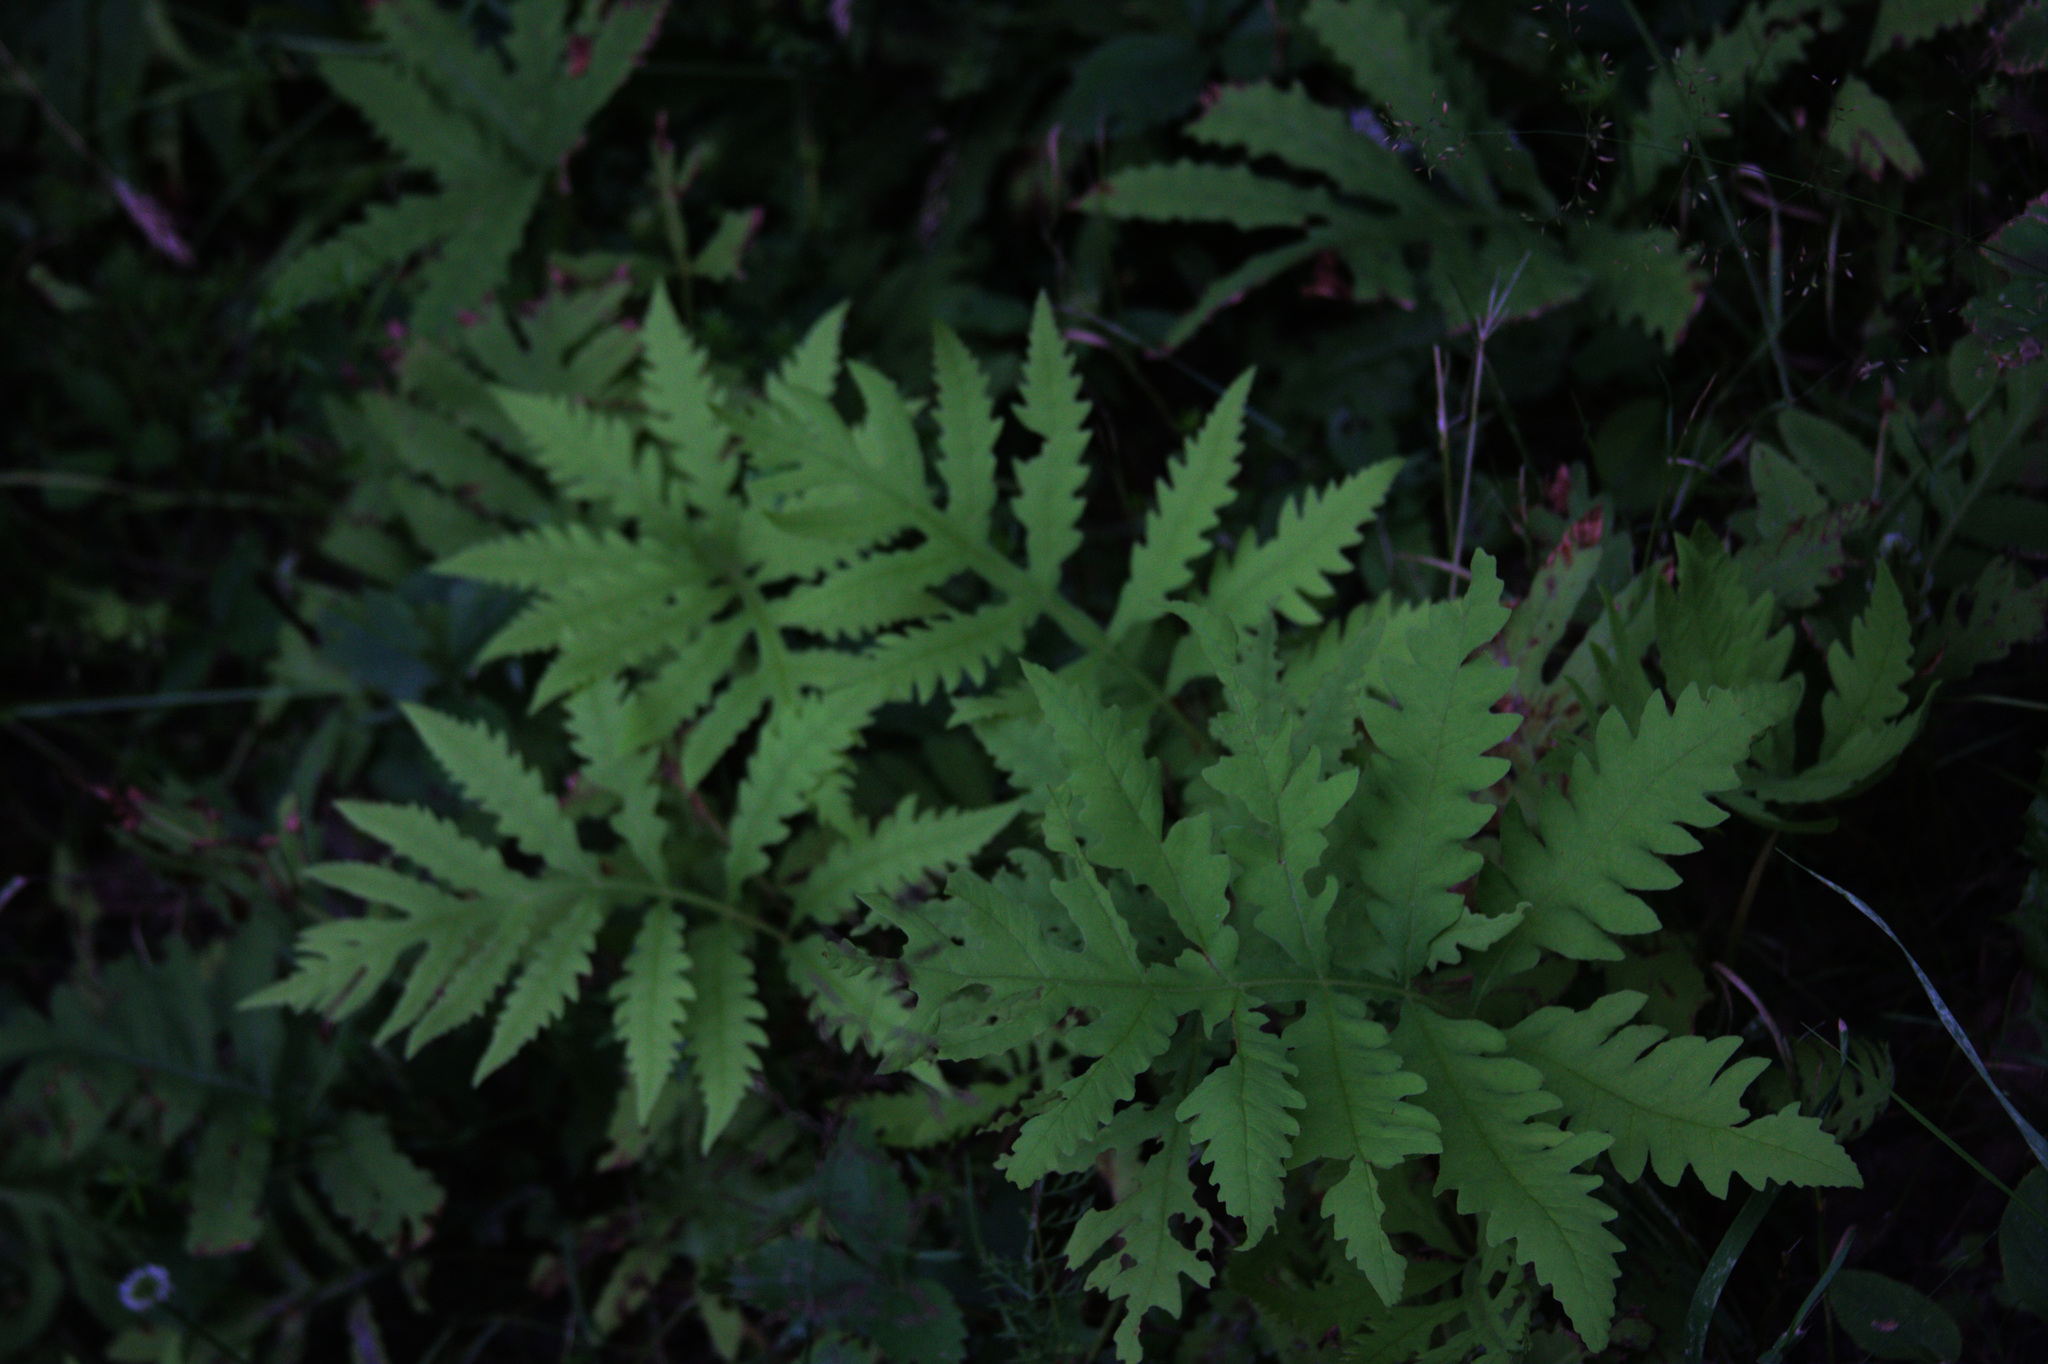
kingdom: Plantae
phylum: Tracheophyta
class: Polypodiopsida
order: Polypodiales
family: Onocleaceae
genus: Onoclea
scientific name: Onoclea sensibilis
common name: Sensitive fern
